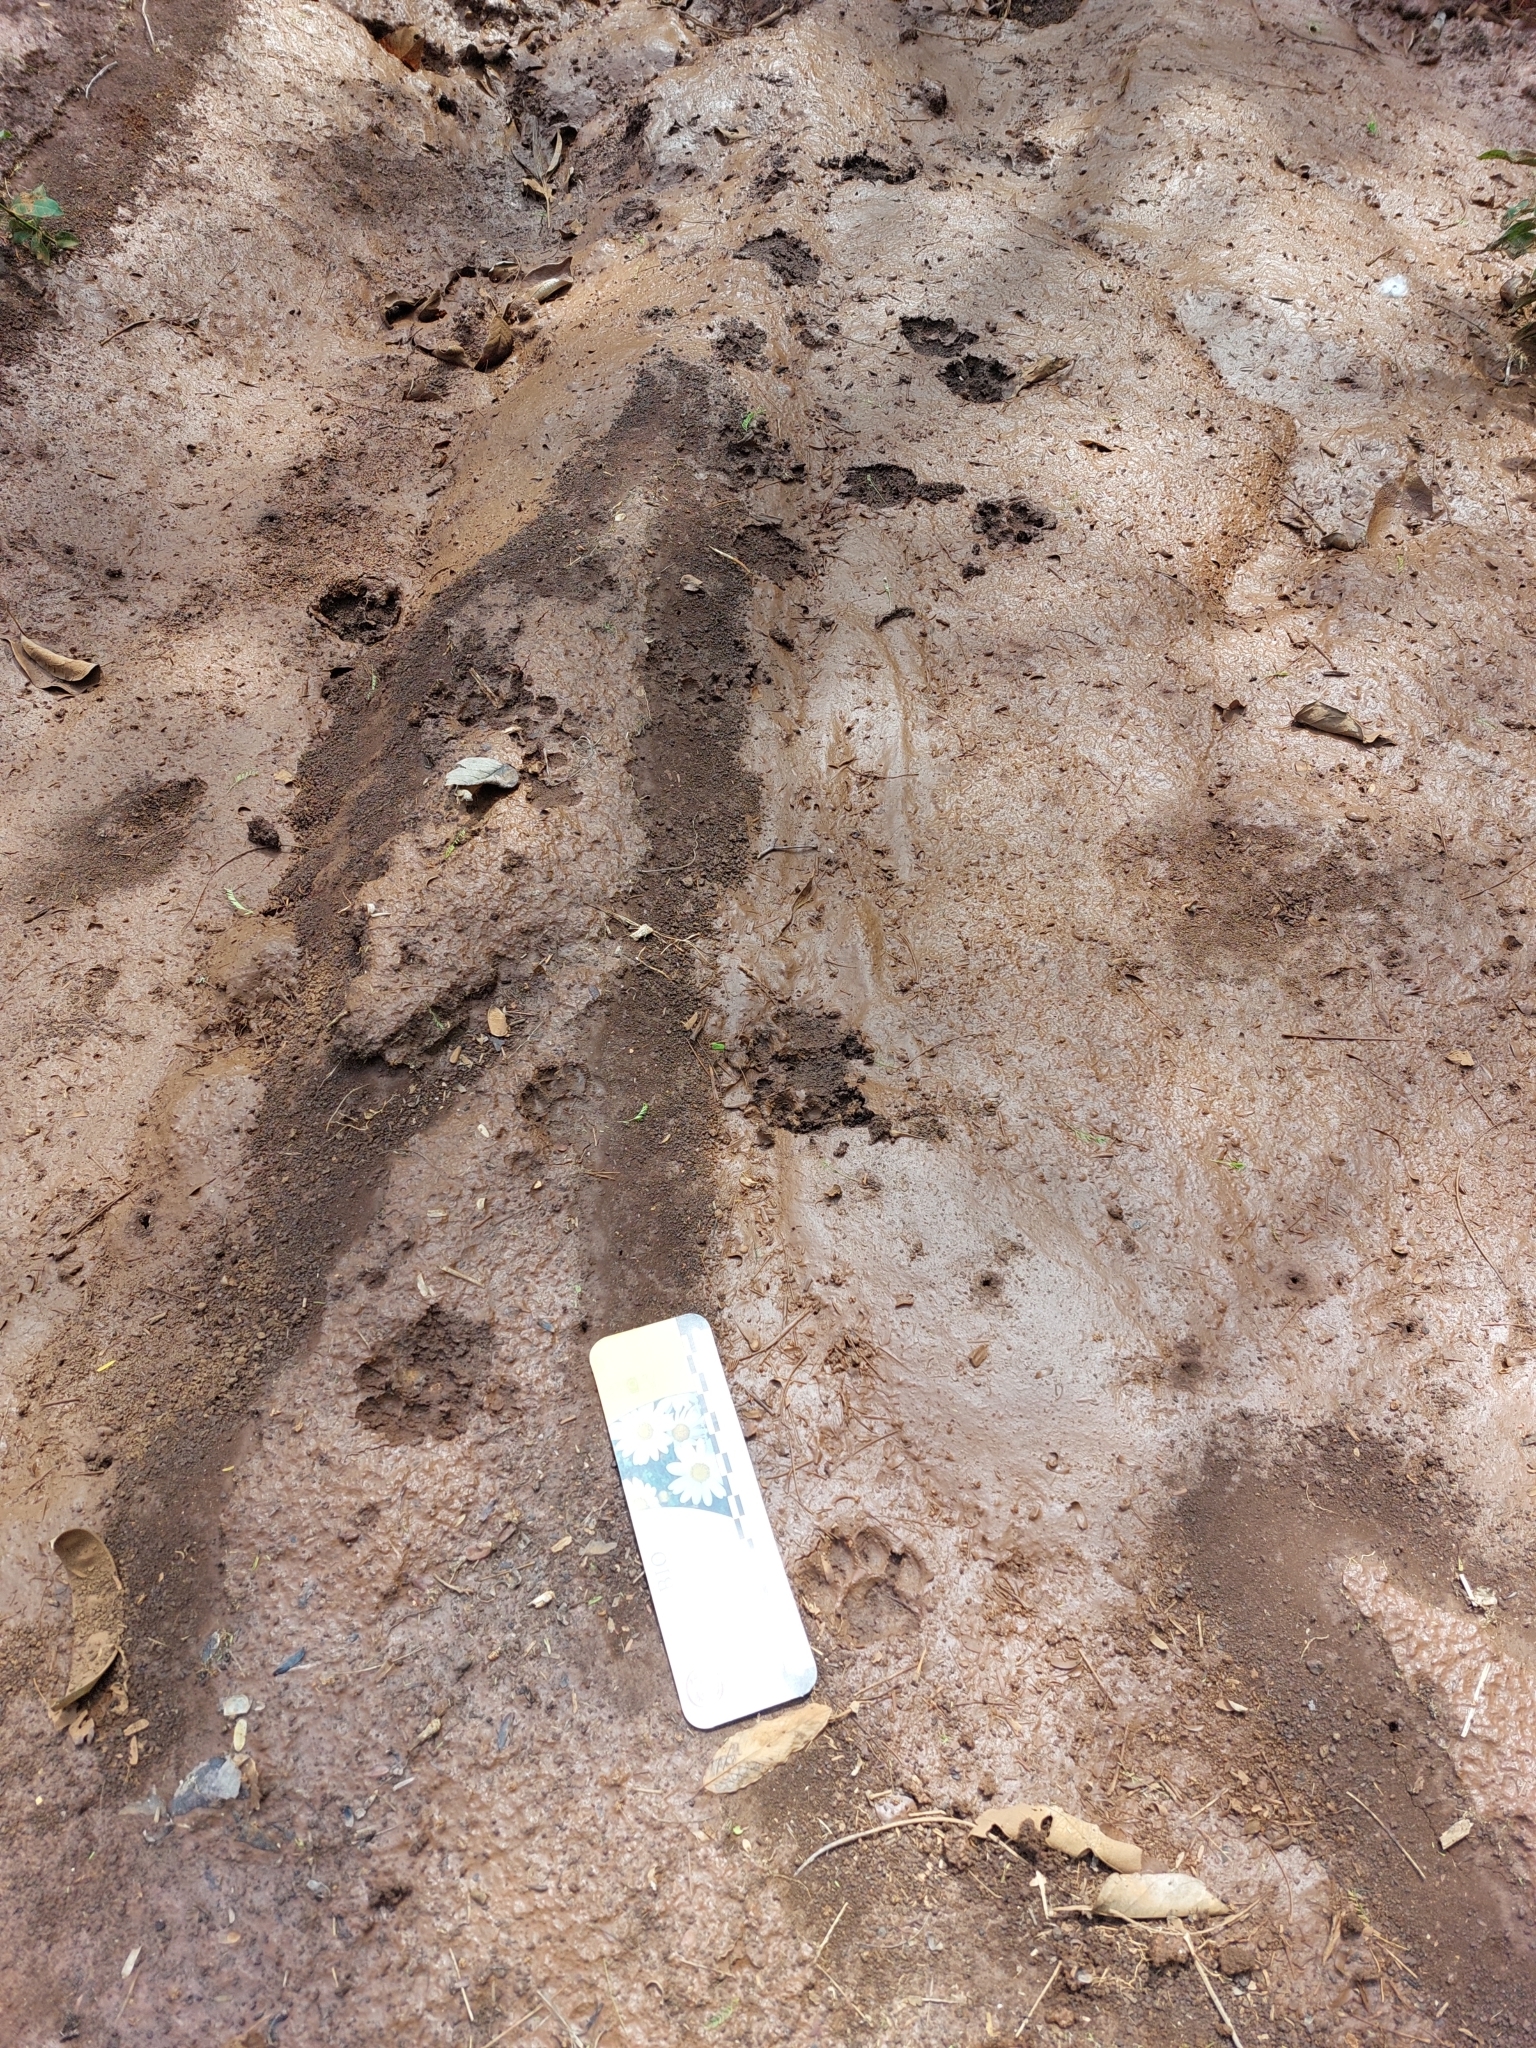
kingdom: Animalia
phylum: Chordata
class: Mammalia
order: Carnivora
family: Felidae
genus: Leopardus
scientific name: Leopardus pardalis
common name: Ocelot
